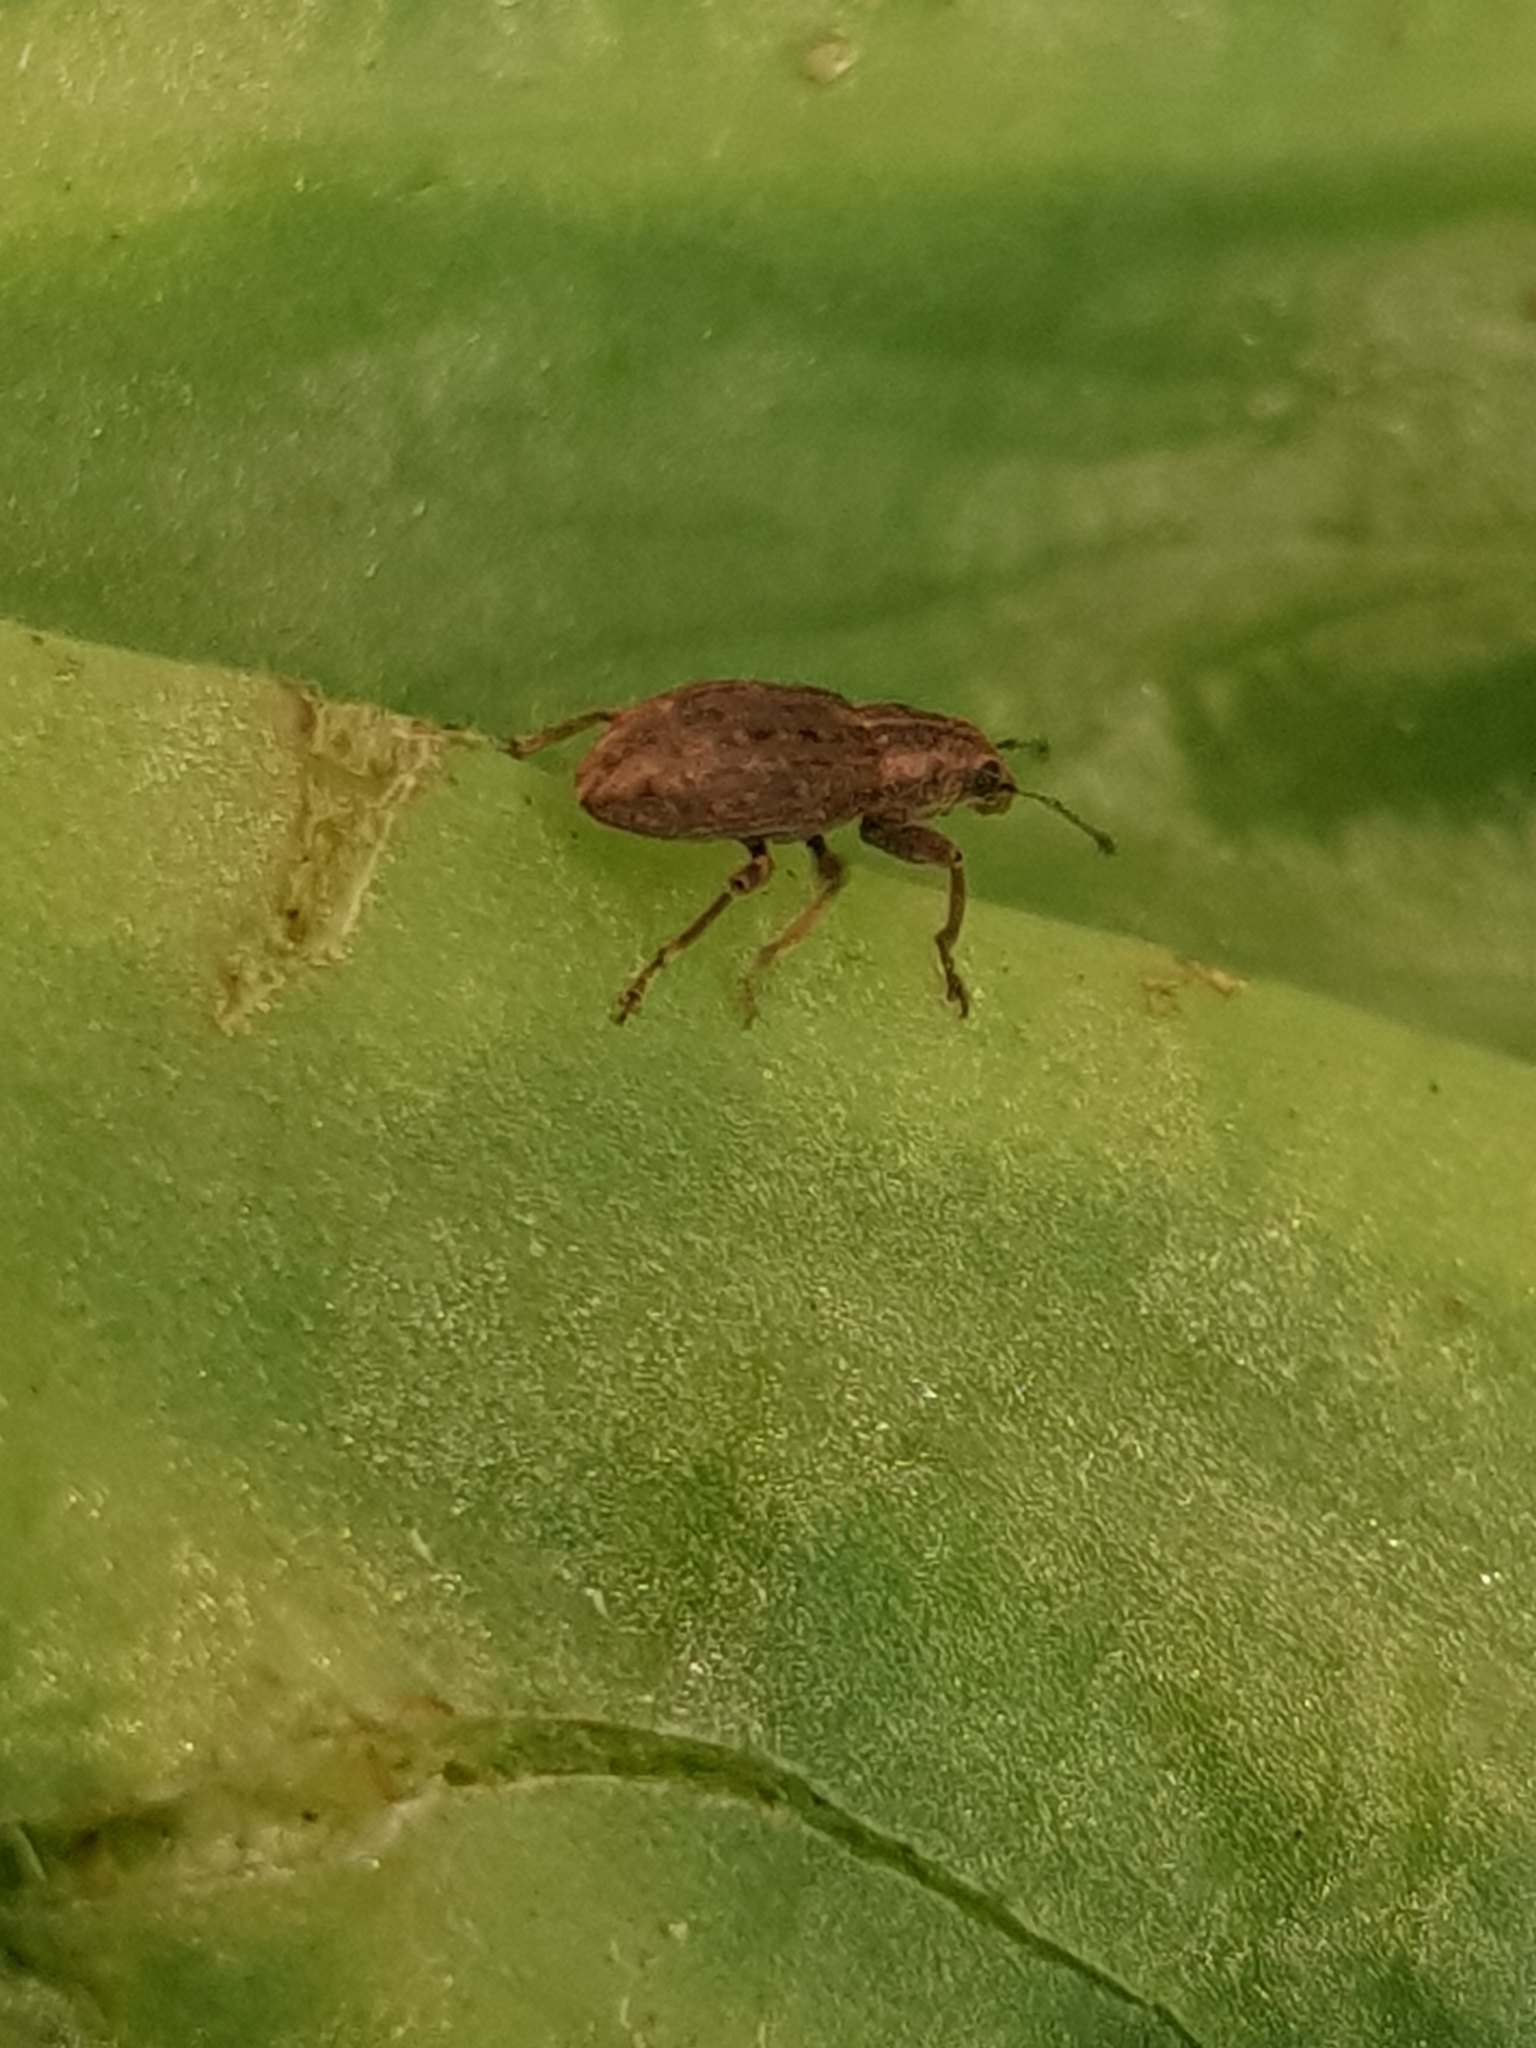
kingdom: Animalia
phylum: Arthropoda
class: Insecta
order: Coleoptera
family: Curculionidae
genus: Sitona
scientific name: Sitona obsoletus
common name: Weevil
